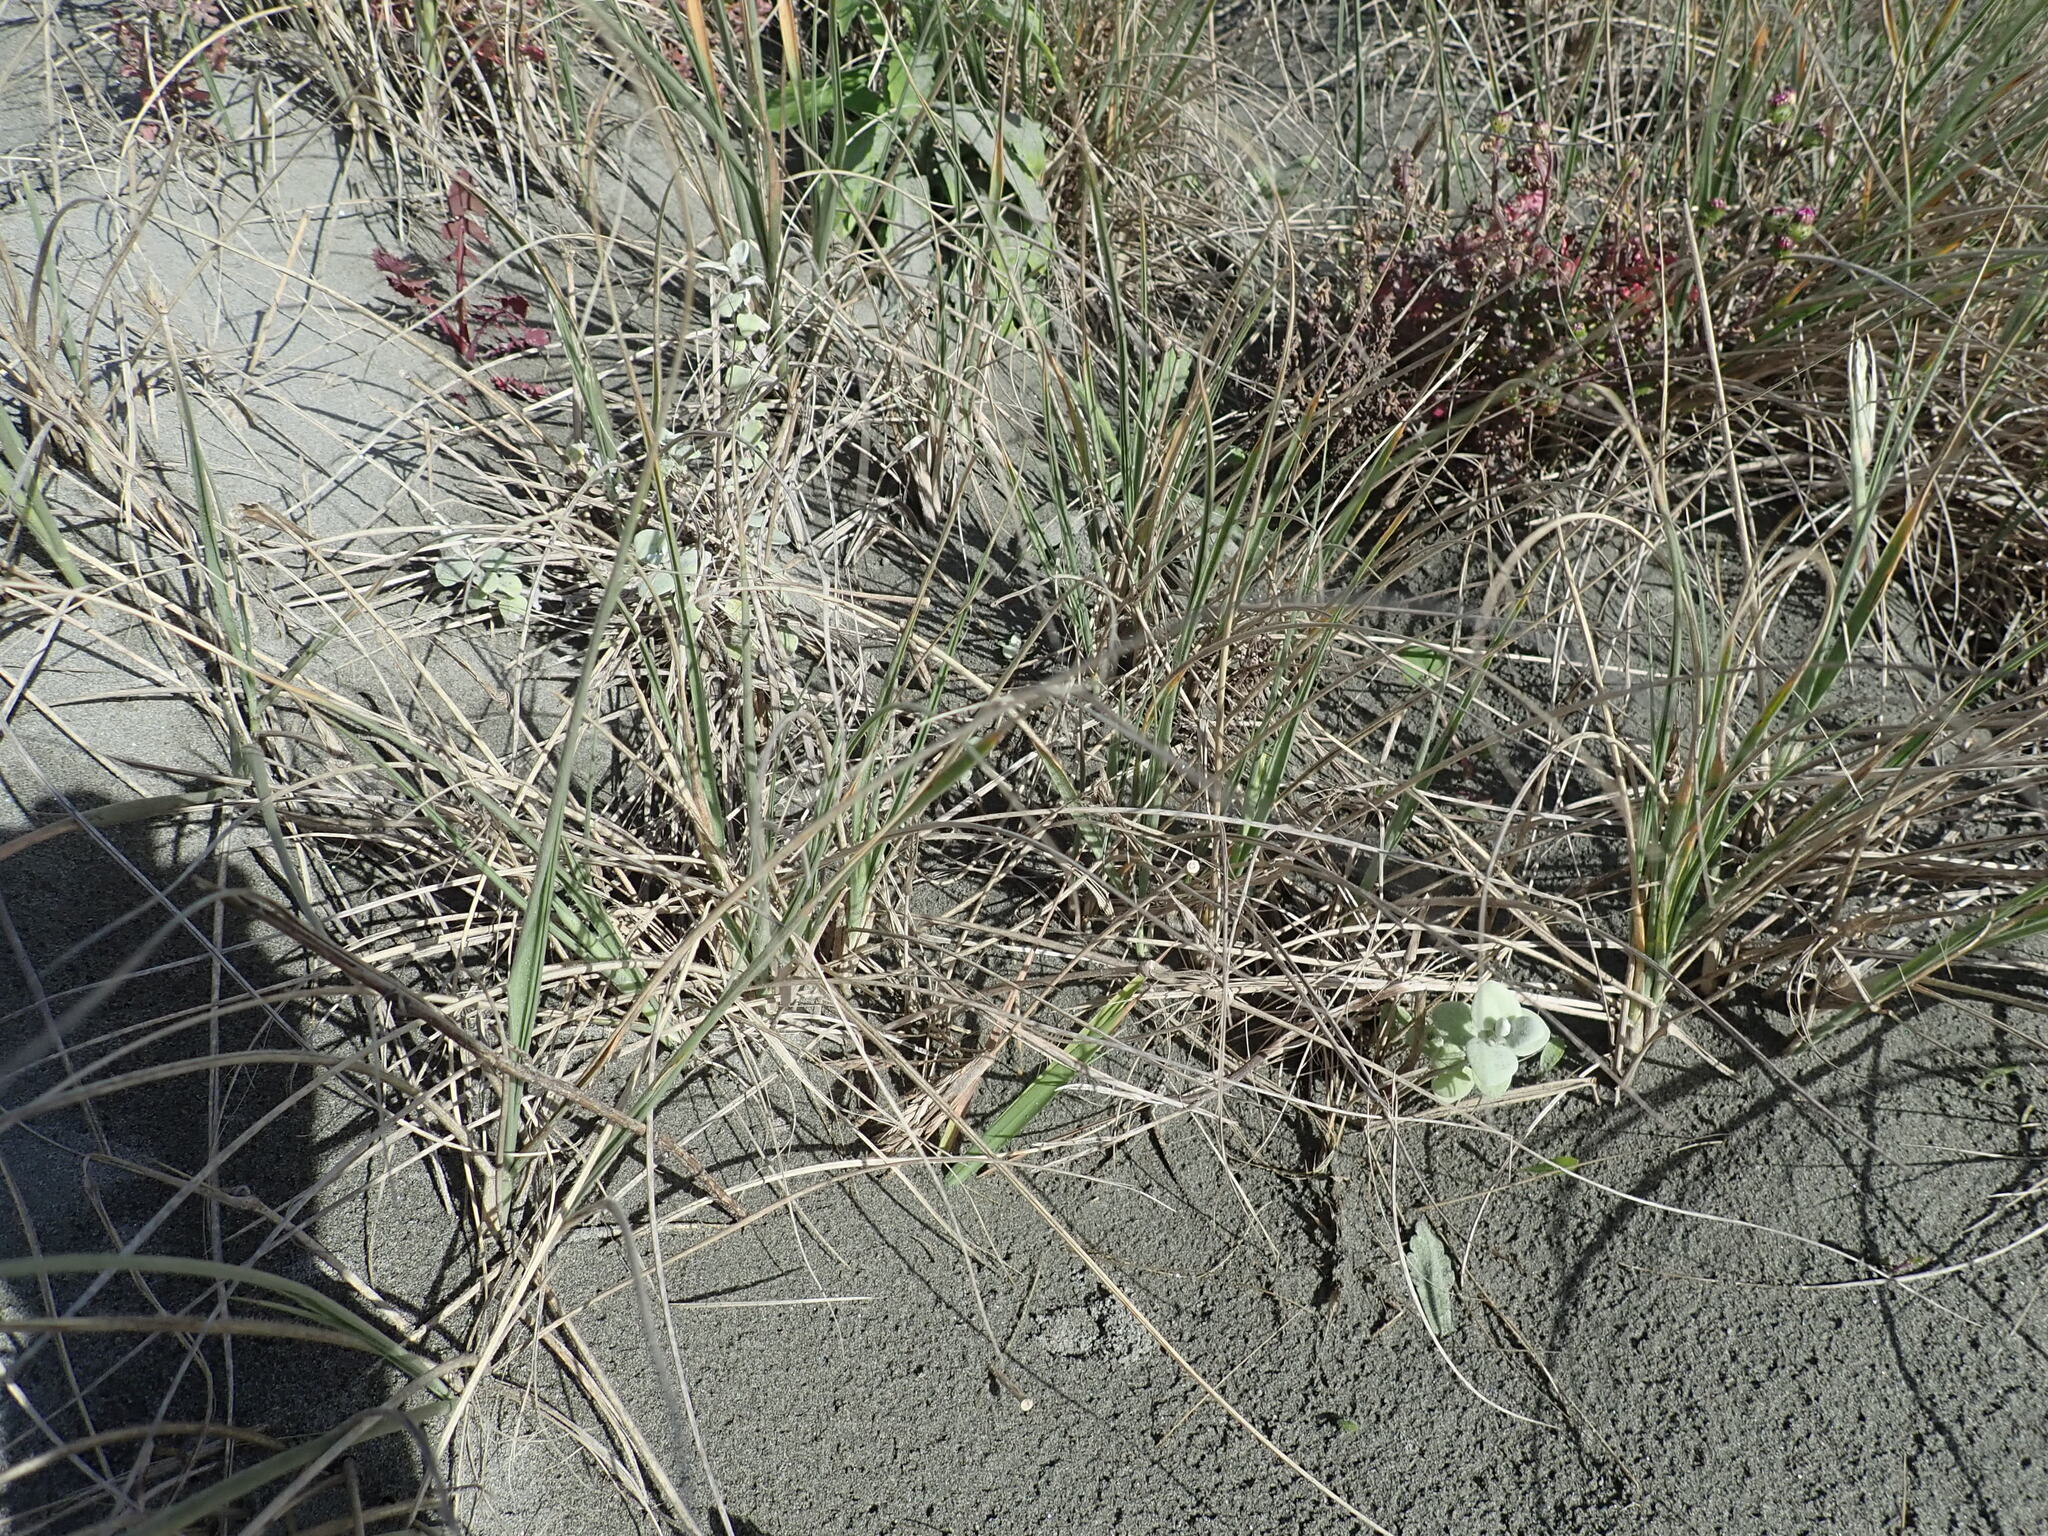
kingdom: Plantae
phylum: Tracheophyta
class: Magnoliopsida
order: Asterales
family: Asteraceae
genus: Helichrysum
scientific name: Helichrysum petiolare
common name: Licorice-plant
